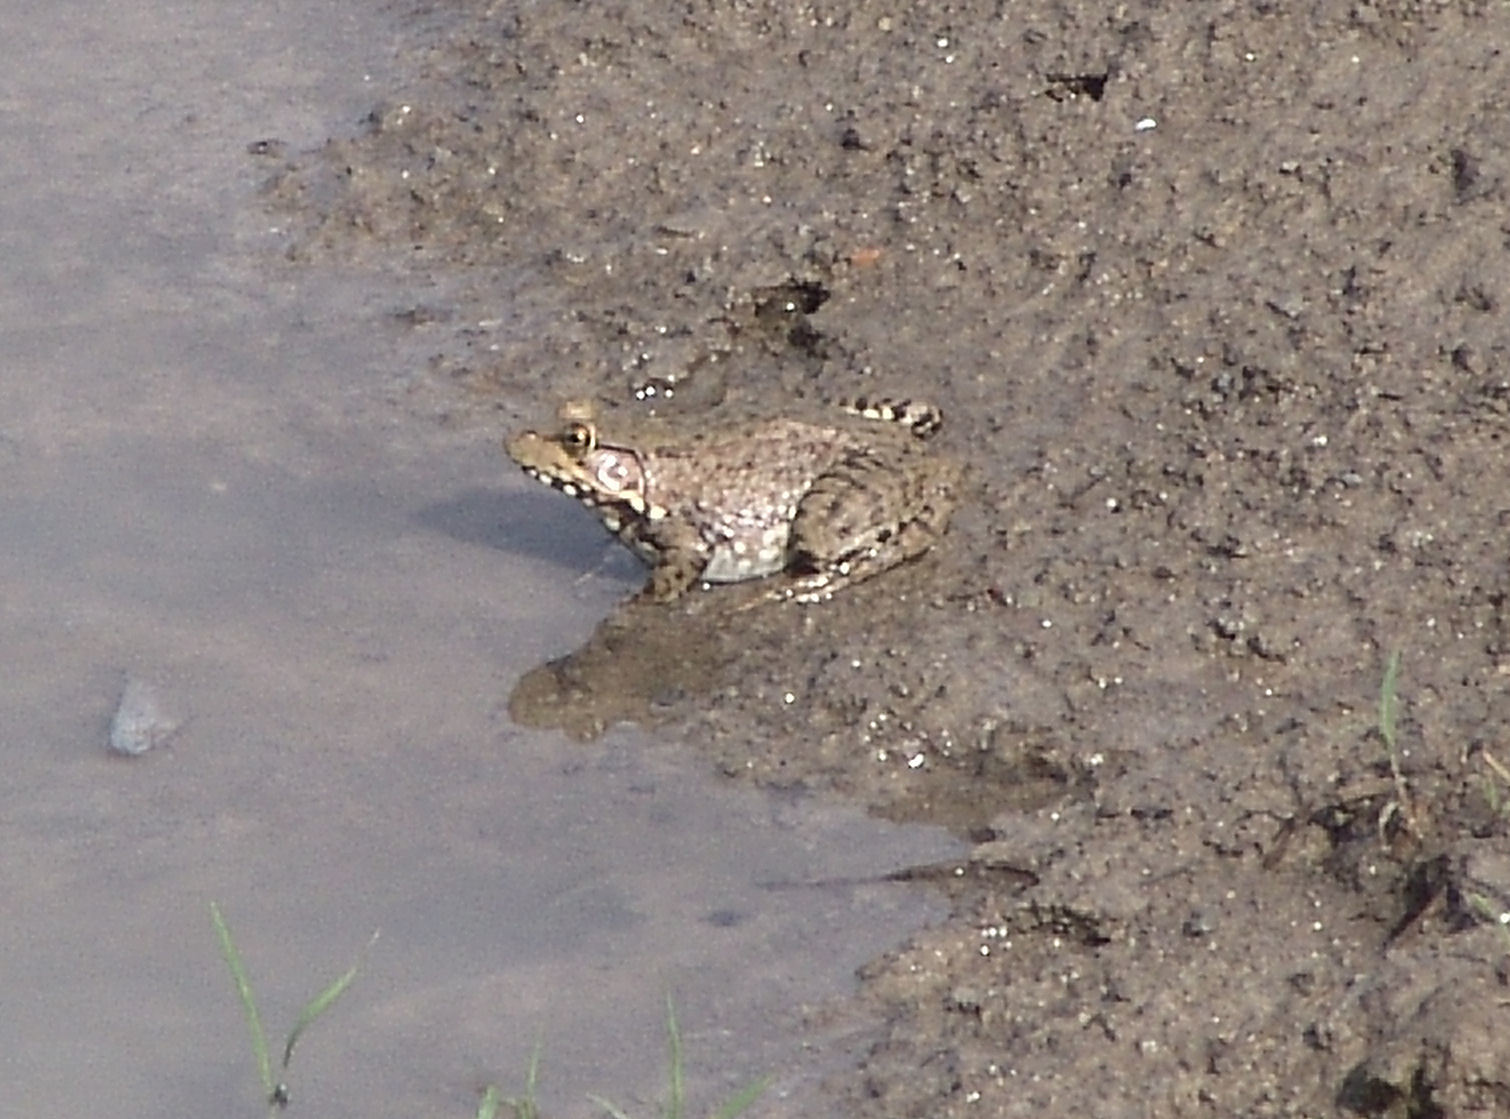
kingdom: Animalia
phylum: Chordata
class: Amphibia
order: Anura
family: Ranidae
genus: Lithobates
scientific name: Lithobates clamitans
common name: Green frog
